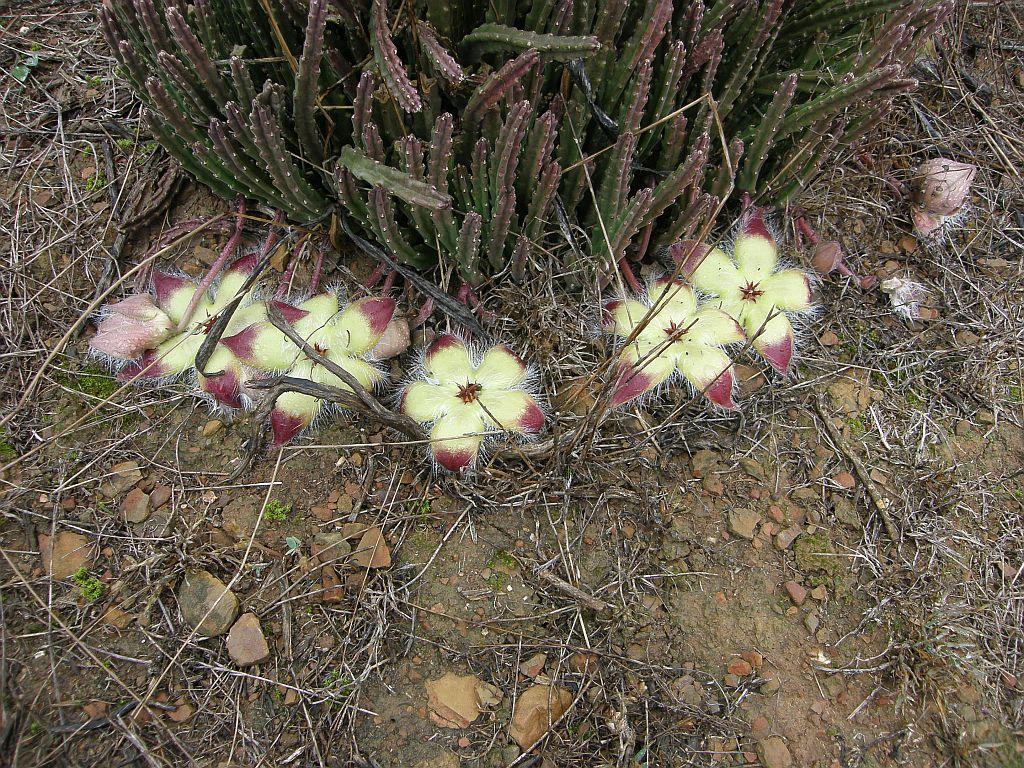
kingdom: Plantae
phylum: Tracheophyta
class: Magnoliopsida
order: Gentianales
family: Apocynaceae
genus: Ceropegia
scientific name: Ceropegia pulvinata
